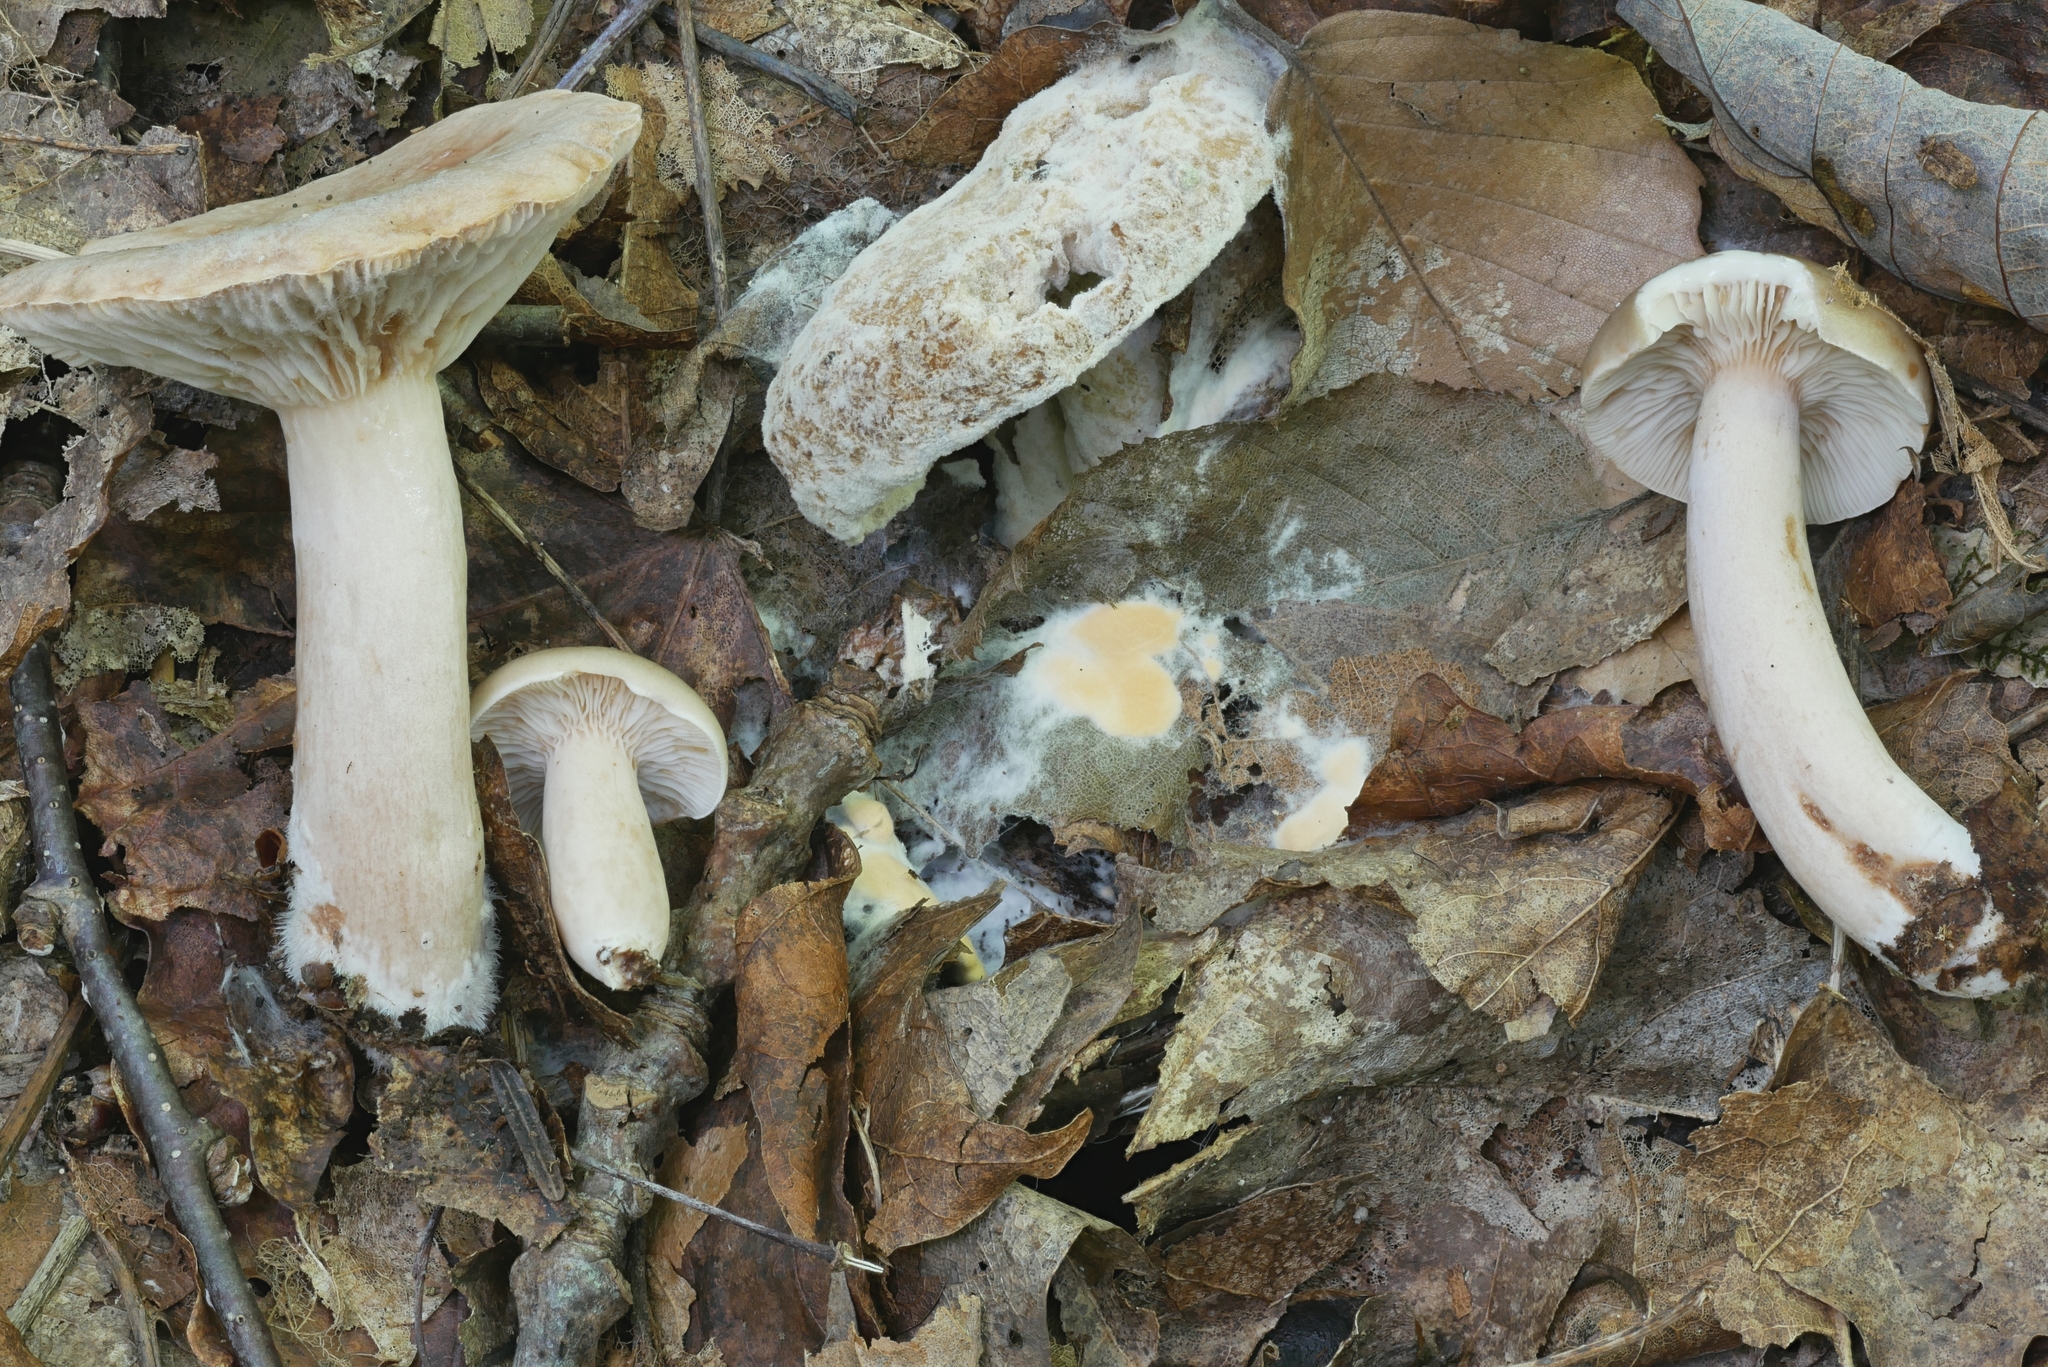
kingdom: Fungi
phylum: Ascomycota
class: Sordariomycetes
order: Hypocreales
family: Hypocreaceae
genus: Hypomyces
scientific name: Hypomyces armeniacus
